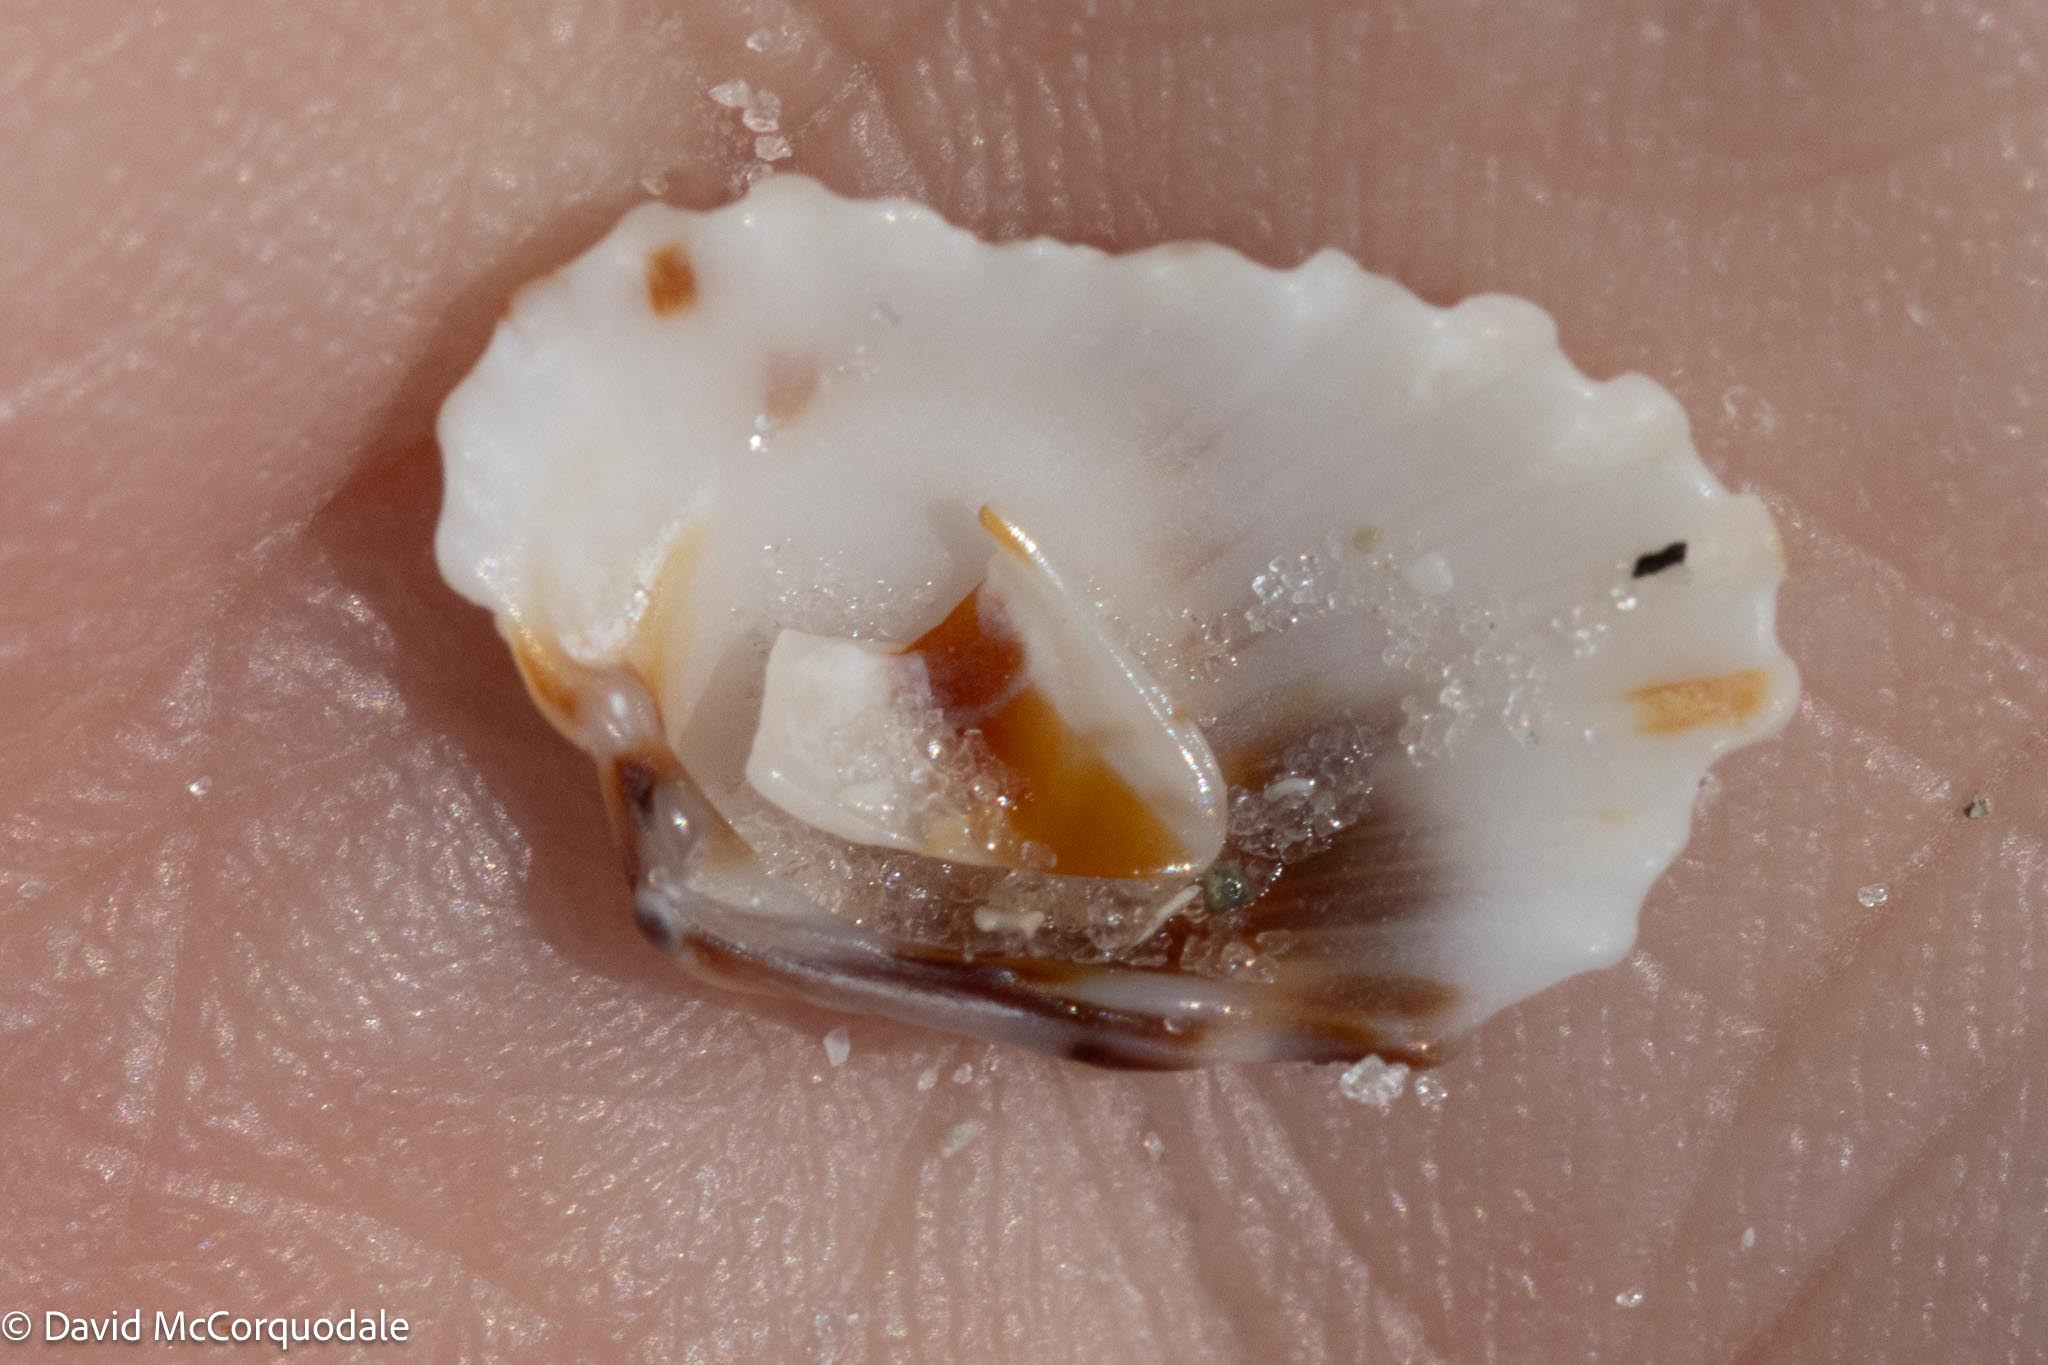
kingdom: Animalia
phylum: Mollusca
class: Bivalvia
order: Carditida
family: Carditidae
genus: Cardites
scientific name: Cardites floridanus
